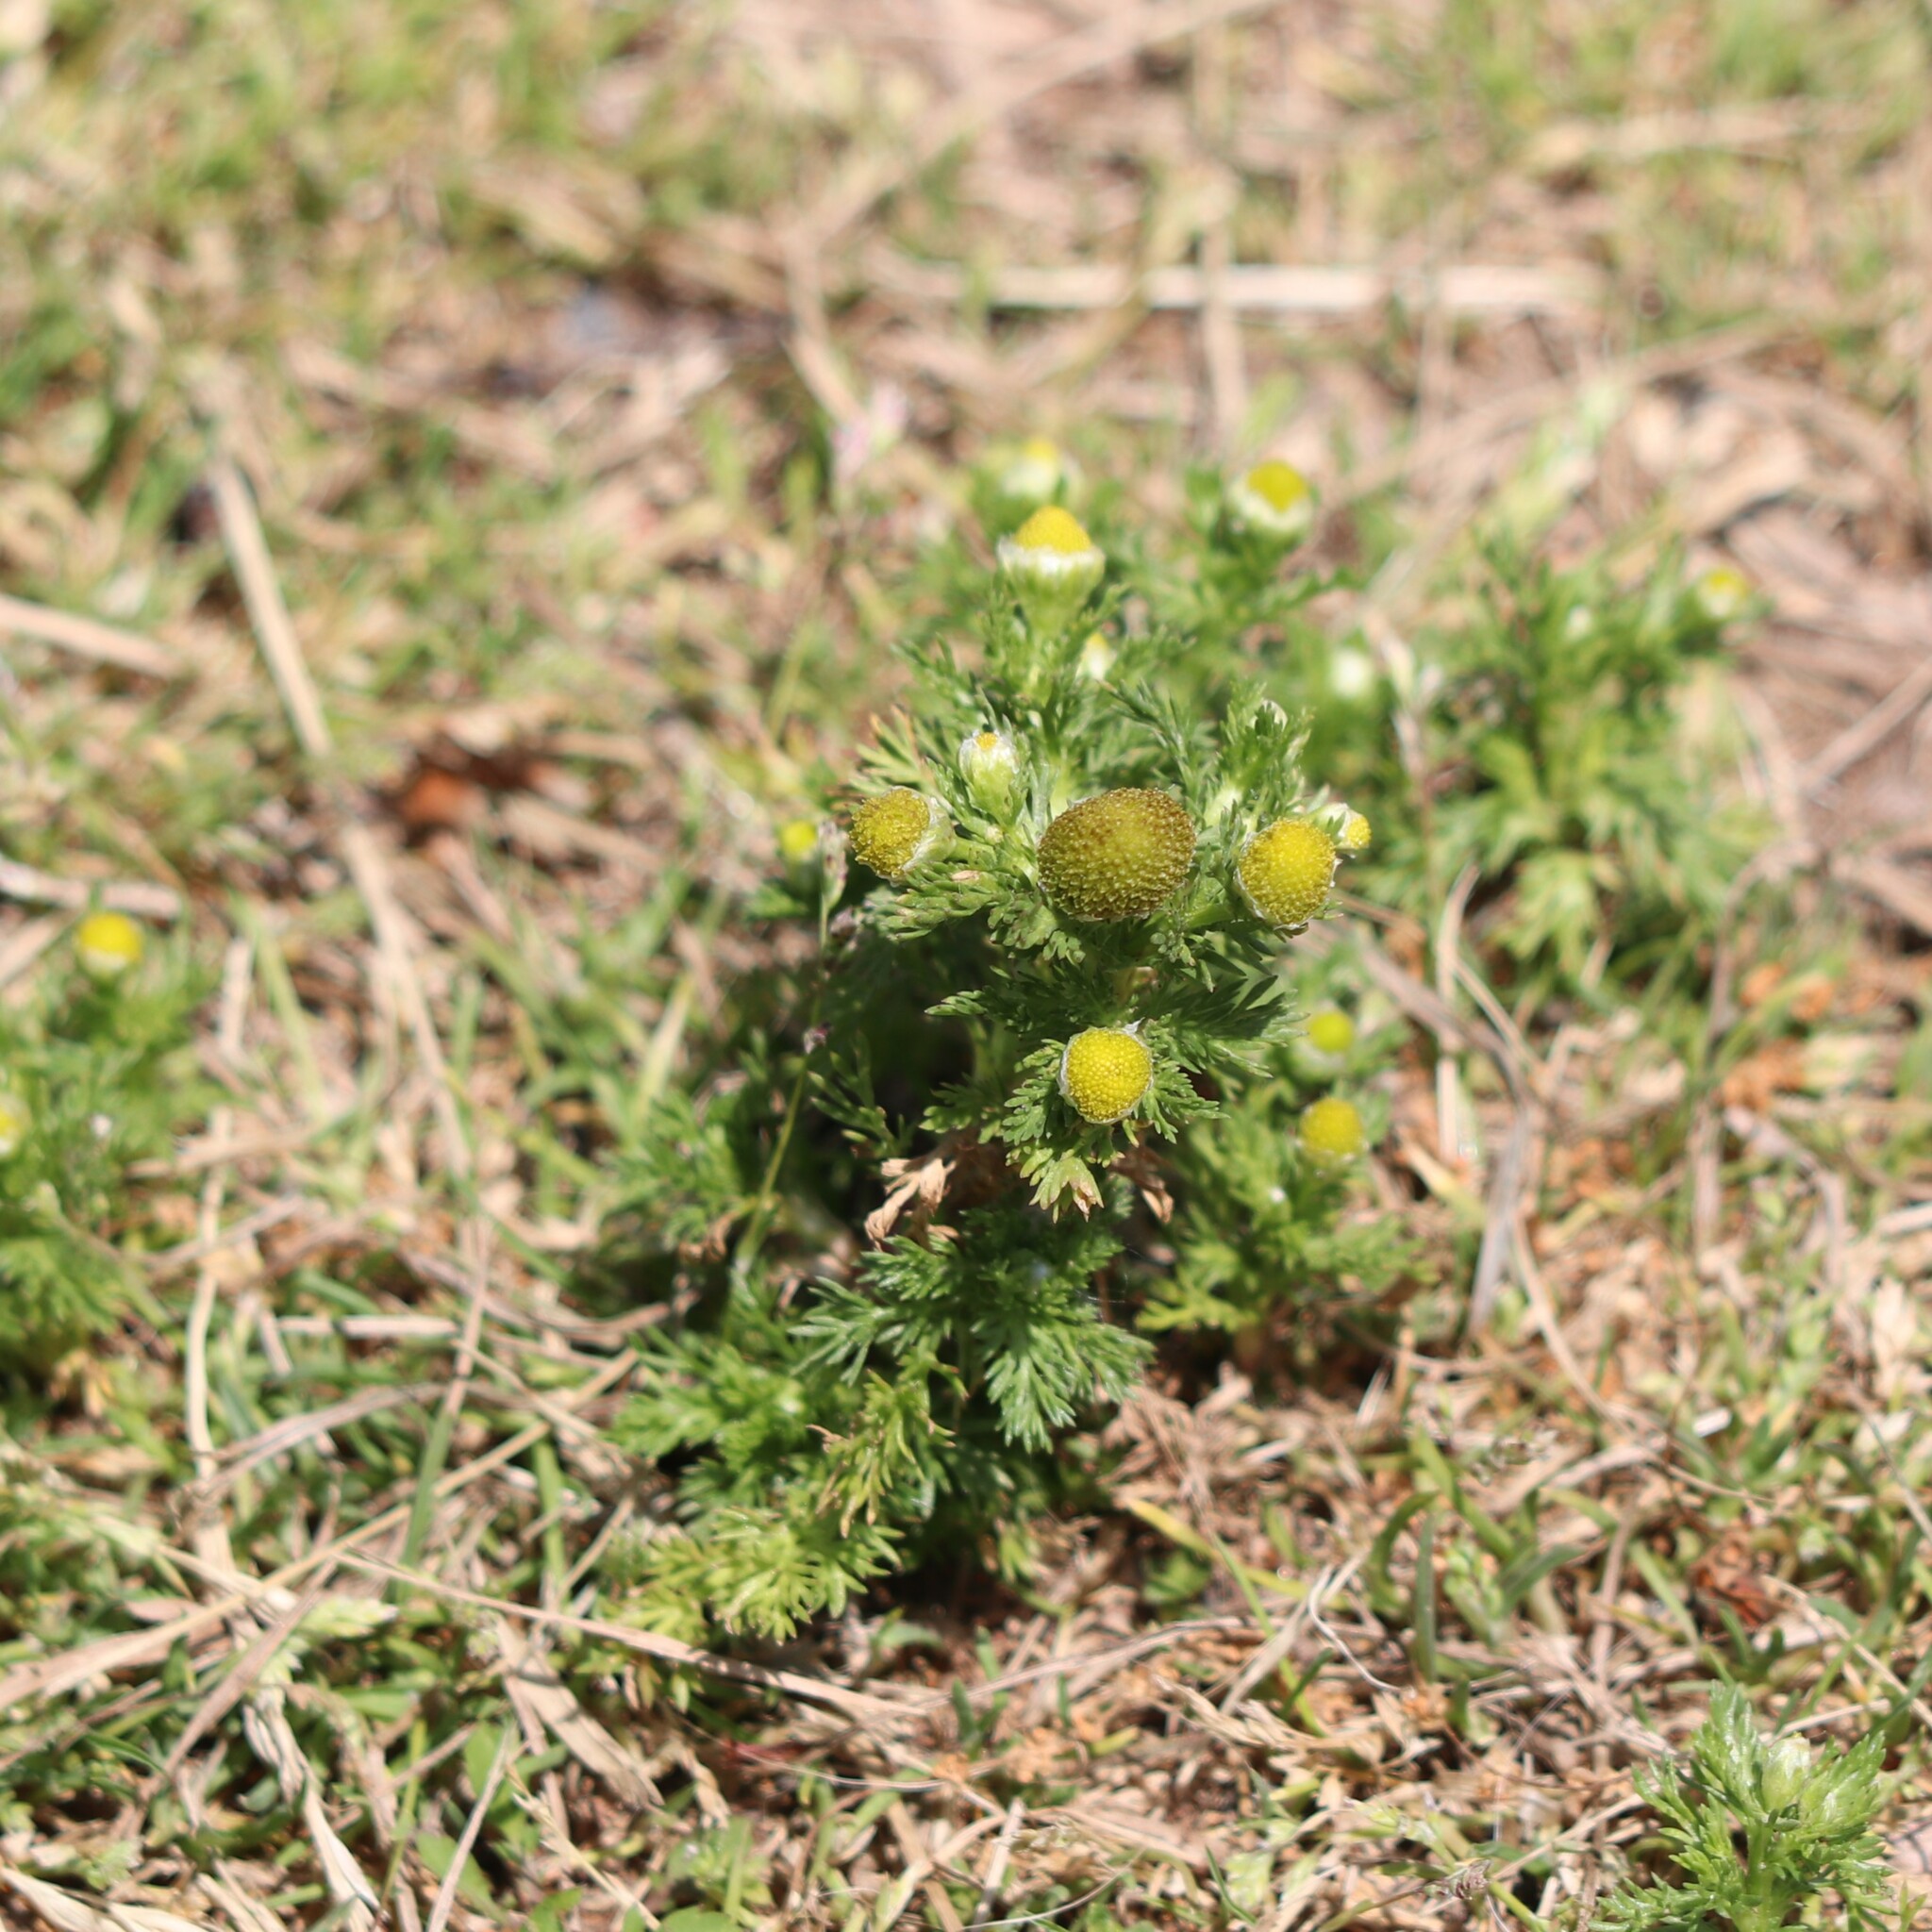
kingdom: Plantae
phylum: Tracheophyta
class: Magnoliopsida
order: Asterales
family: Asteraceae
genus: Matricaria
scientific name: Matricaria discoidea
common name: Disc mayweed
